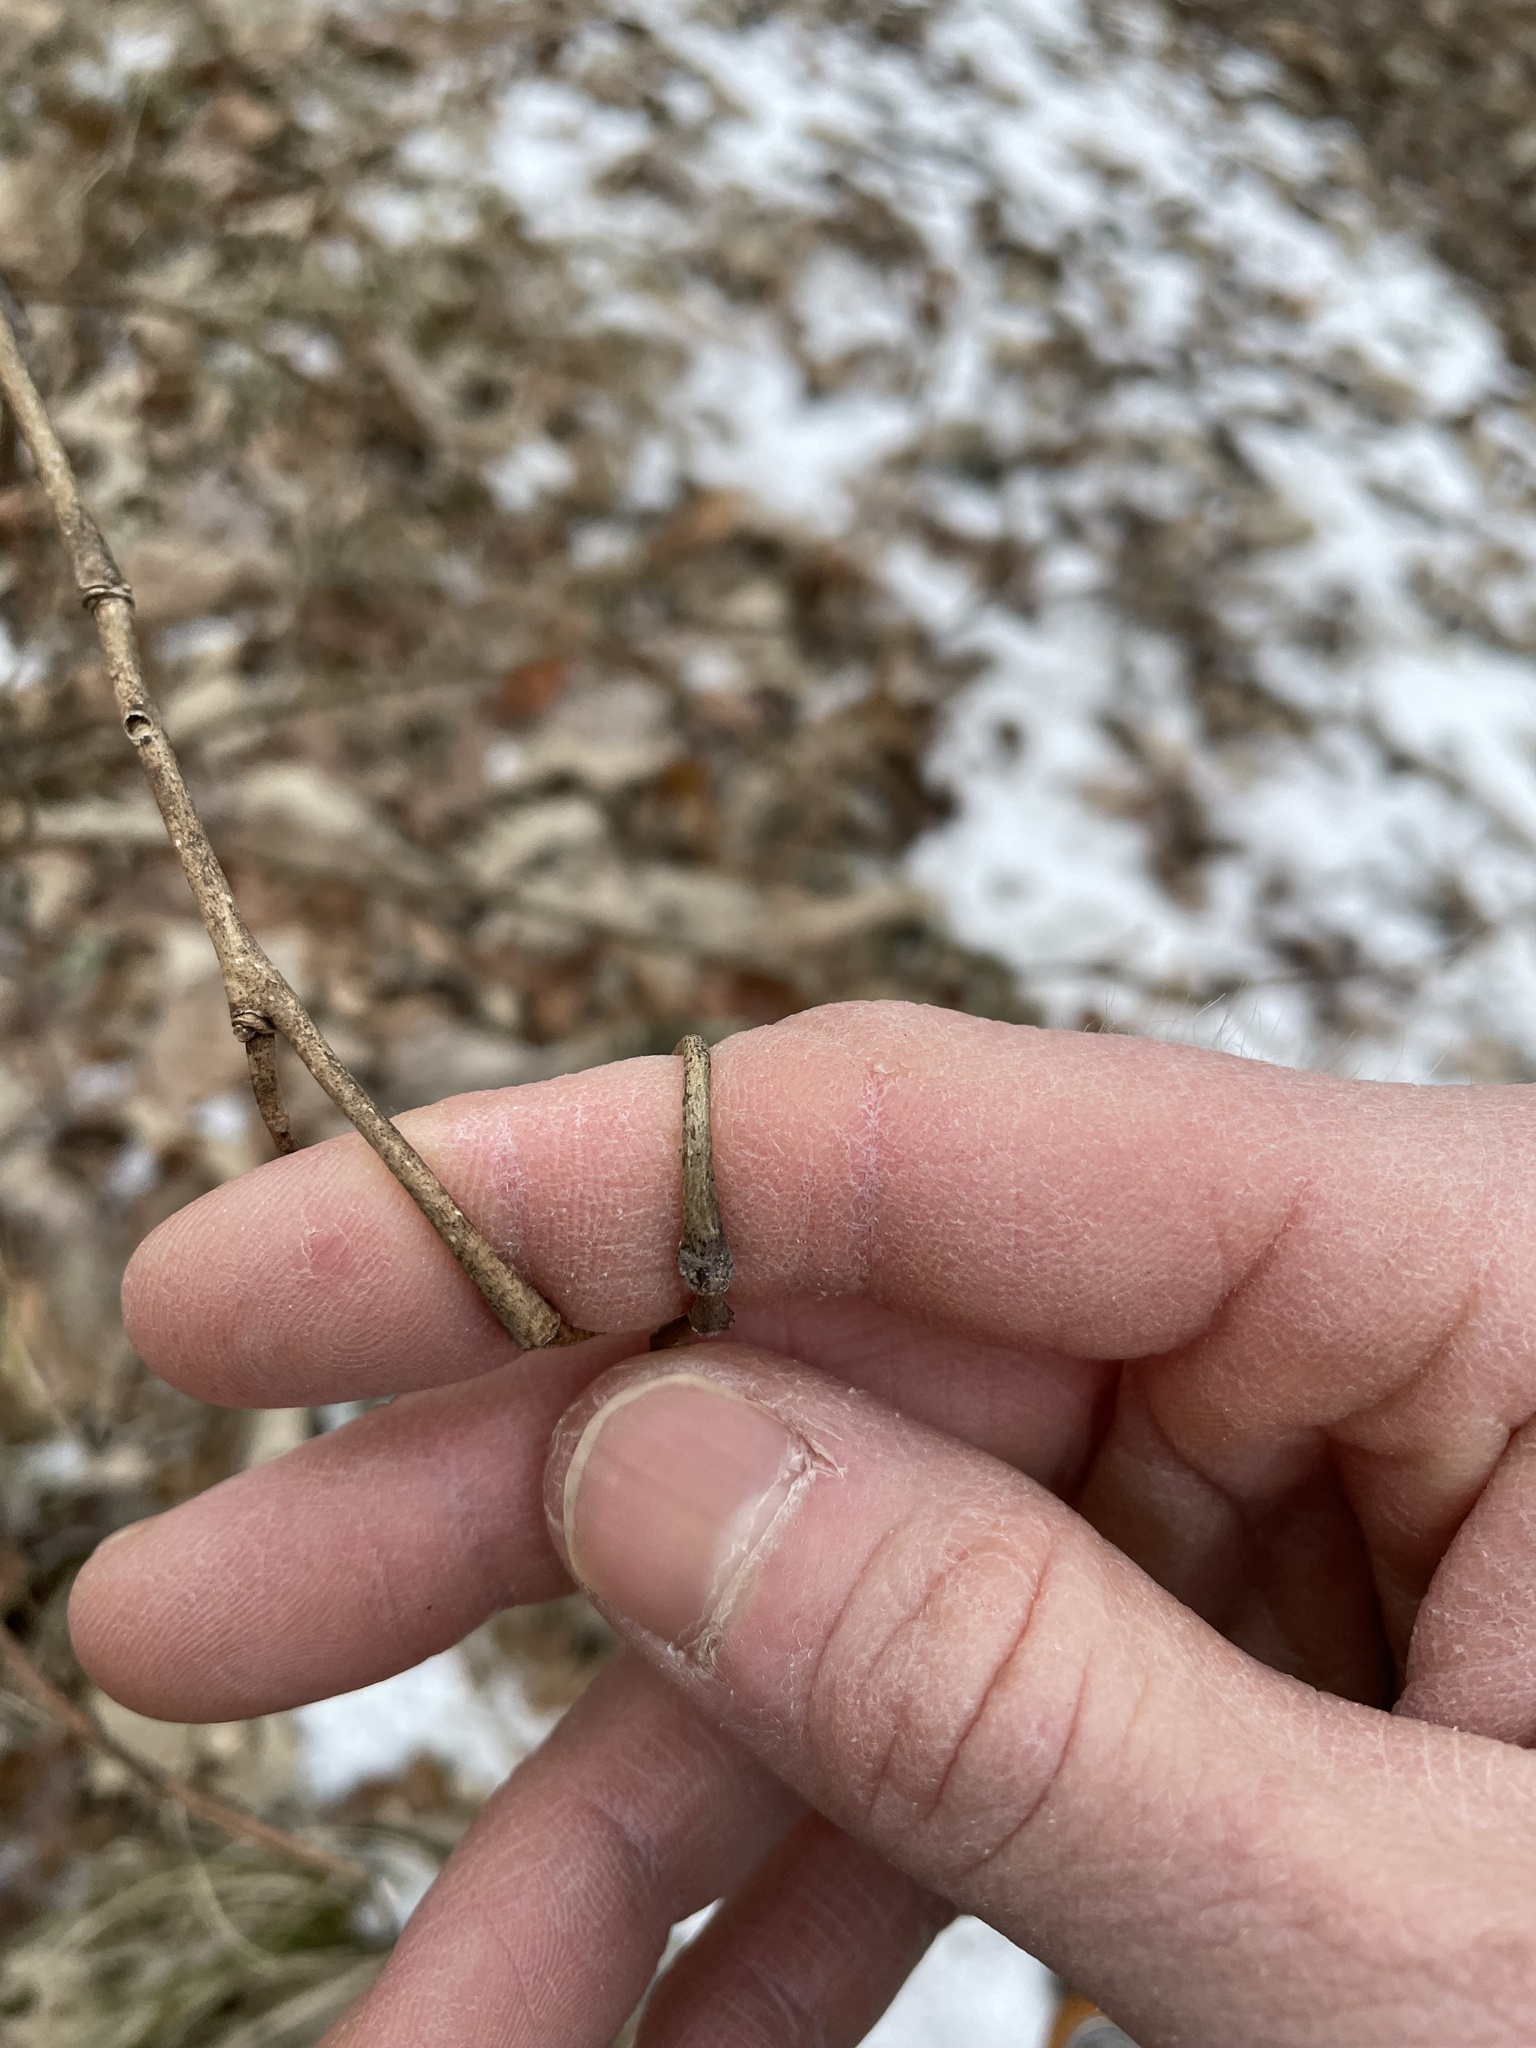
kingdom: Plantae
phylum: Tracheophyta
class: Magnoliopsida
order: Malvales
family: Thymelaeaceae
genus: Dirca
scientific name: Dirca palustris
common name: Leatherwood
